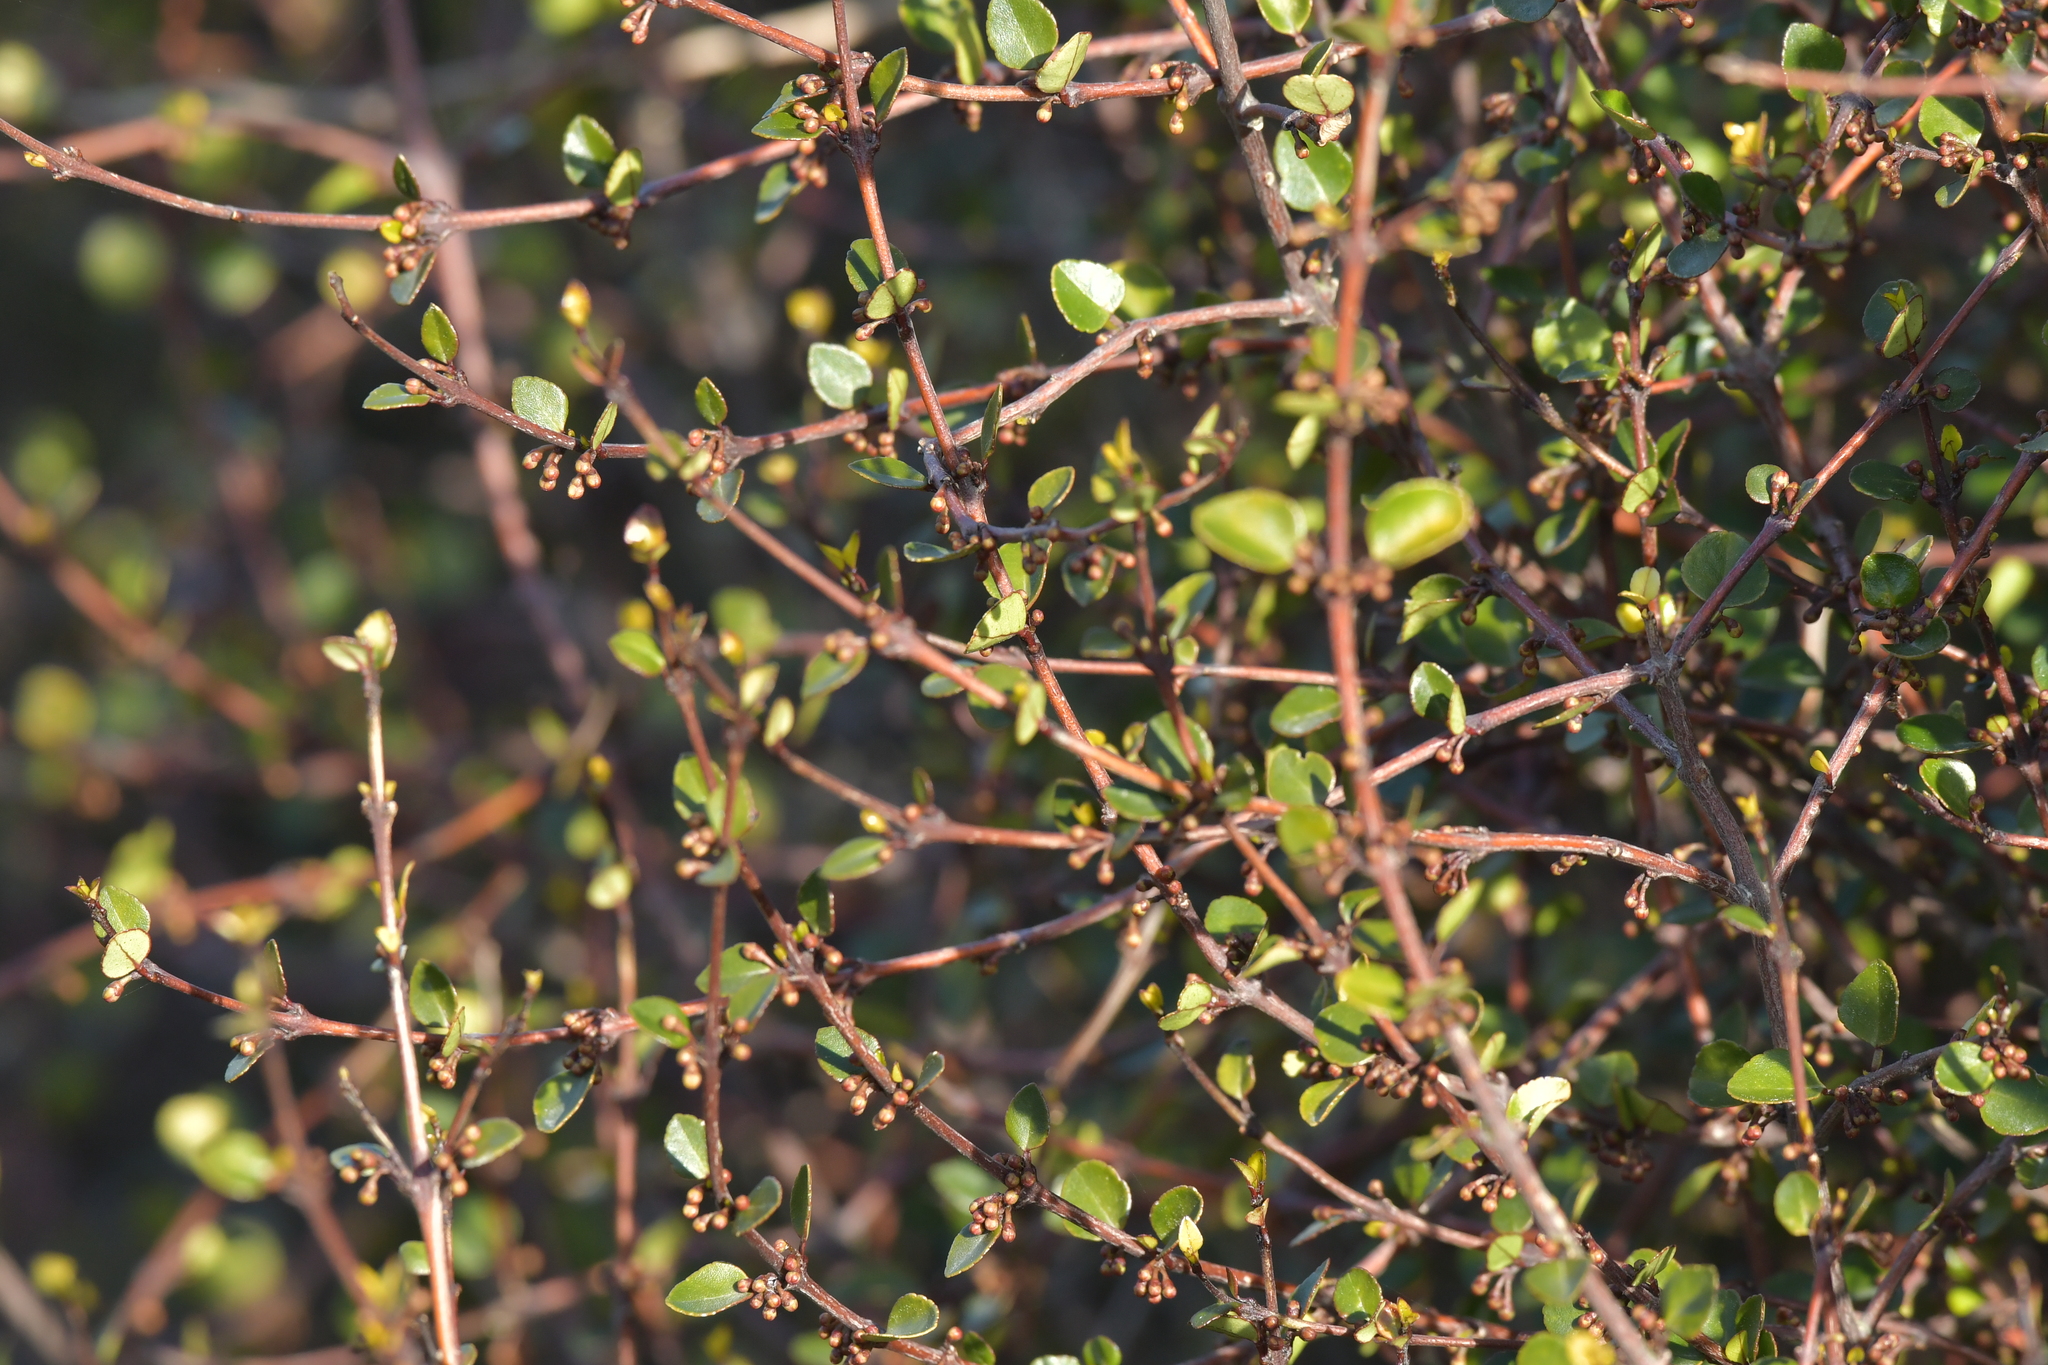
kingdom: Plantae
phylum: Tracheophyta
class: Magnoliopsida
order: Sapindales
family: Rutaceae
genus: Melicope
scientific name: Melicope simplex
